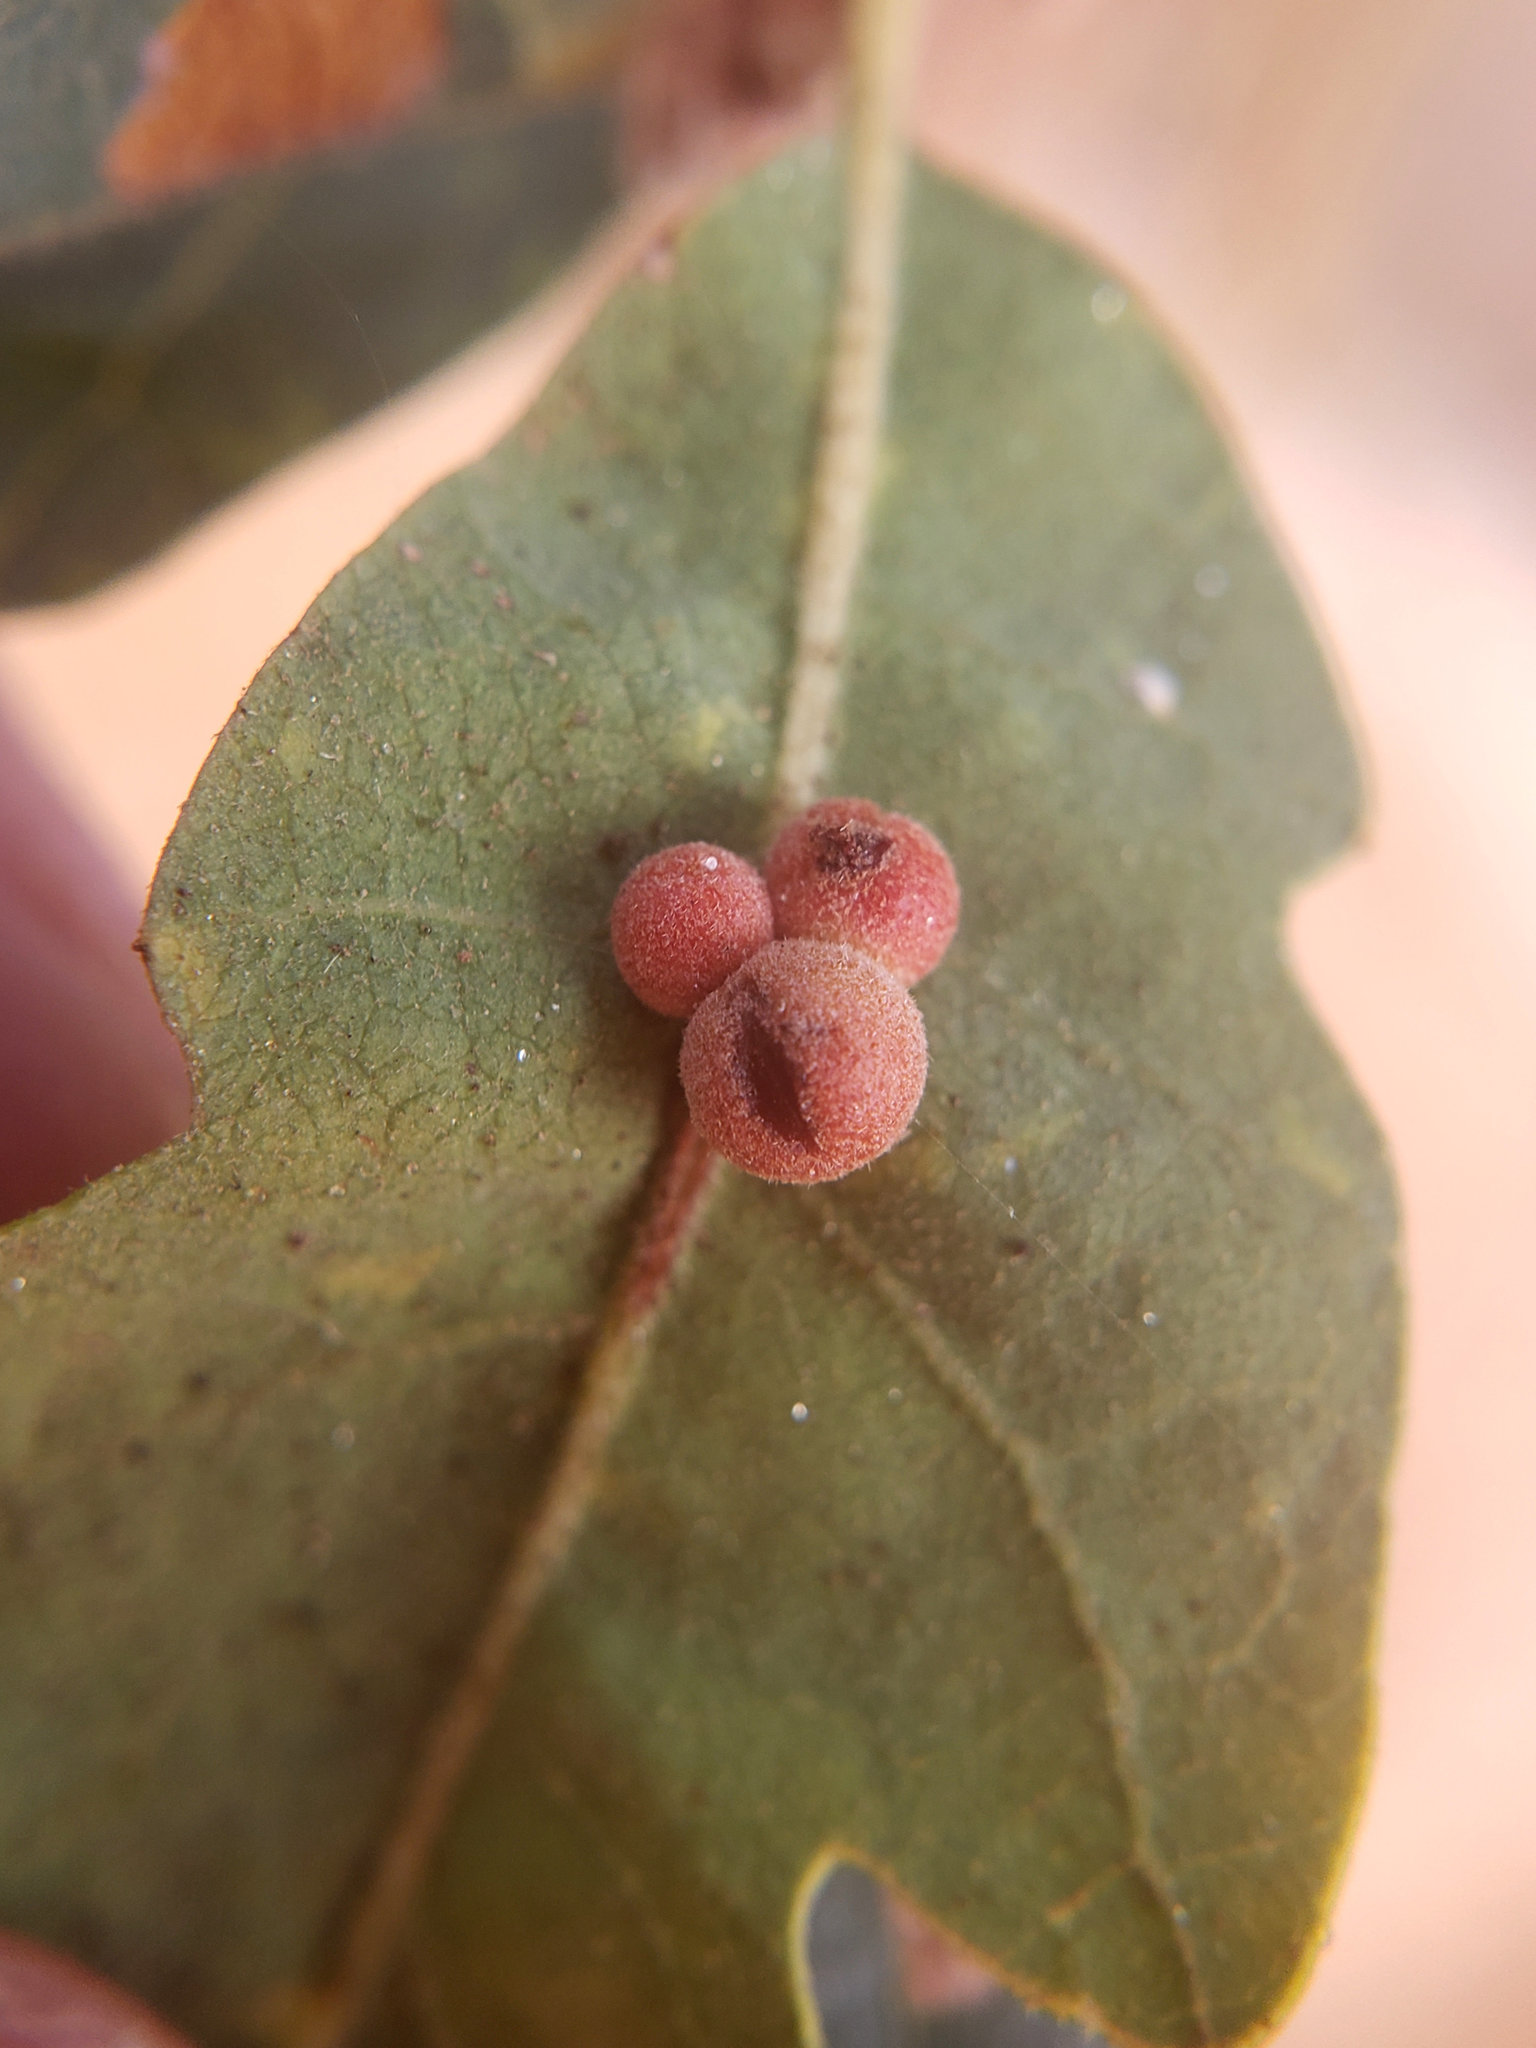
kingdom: Animalia
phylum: Arthropoda
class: Insecta
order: Hymenoptera
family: Cynipidae
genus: Andricus
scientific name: Andricus
